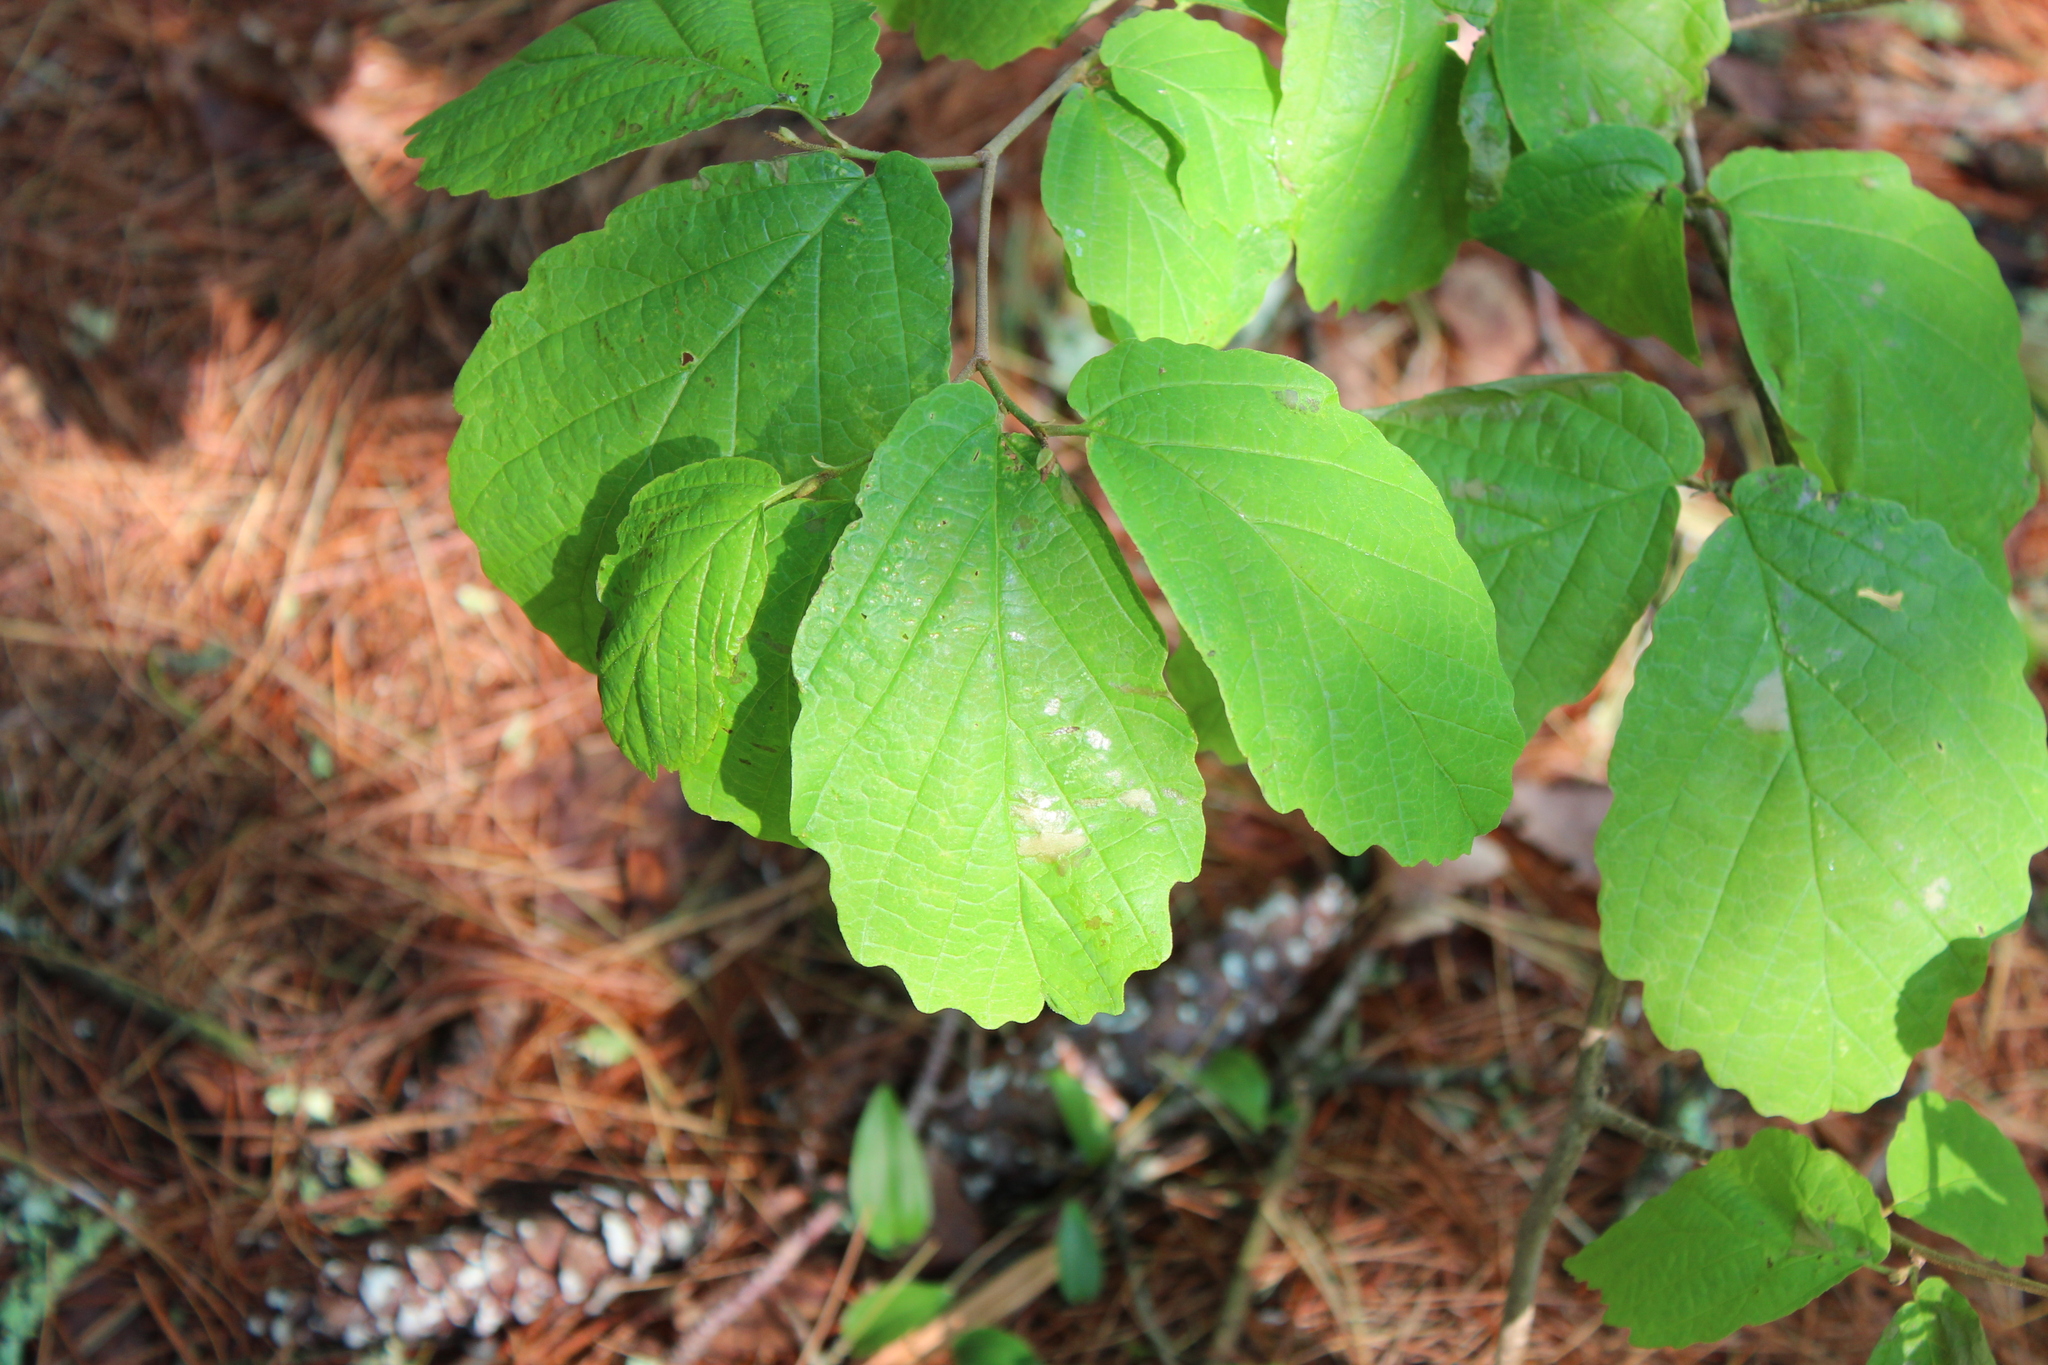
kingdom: Plantae
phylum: Tracheophyta
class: Magnoliopsida
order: Saxifragales
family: Hamamelidaceae
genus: Hamamelis
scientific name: Hamamelis virginiana
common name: Witch-hazel
